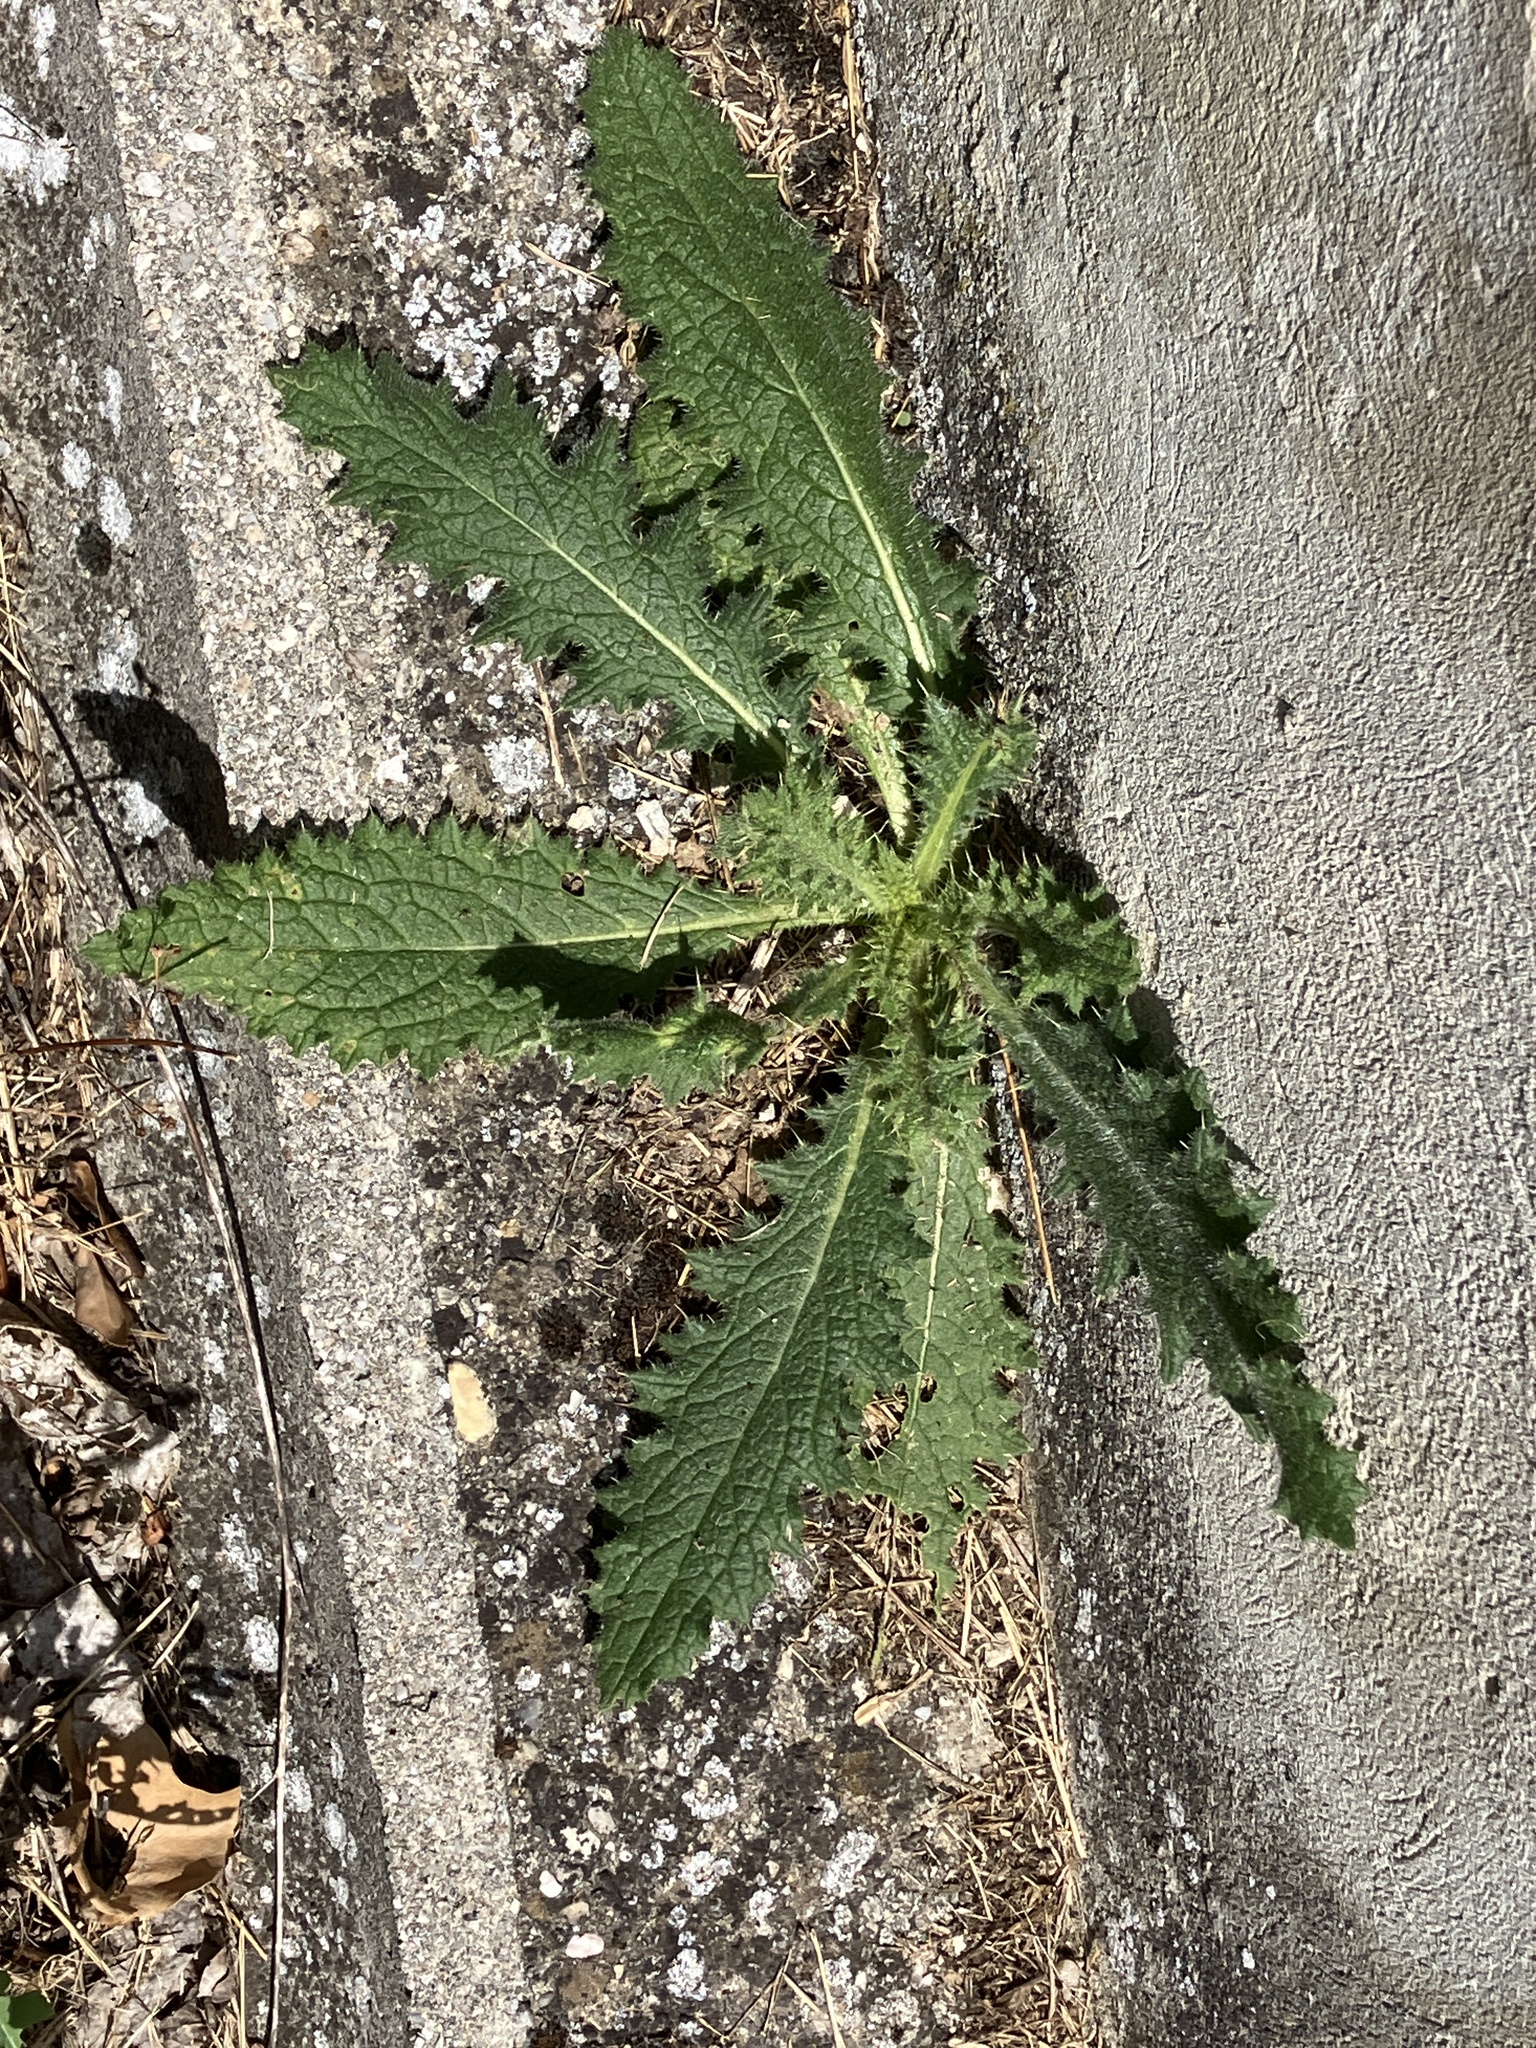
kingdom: Plantae
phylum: Tracheophyta
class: Magnoliopsida
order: Asterales
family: Asteraceae
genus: Cirsium
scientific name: Cirsium vulgare
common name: Bull thistle
